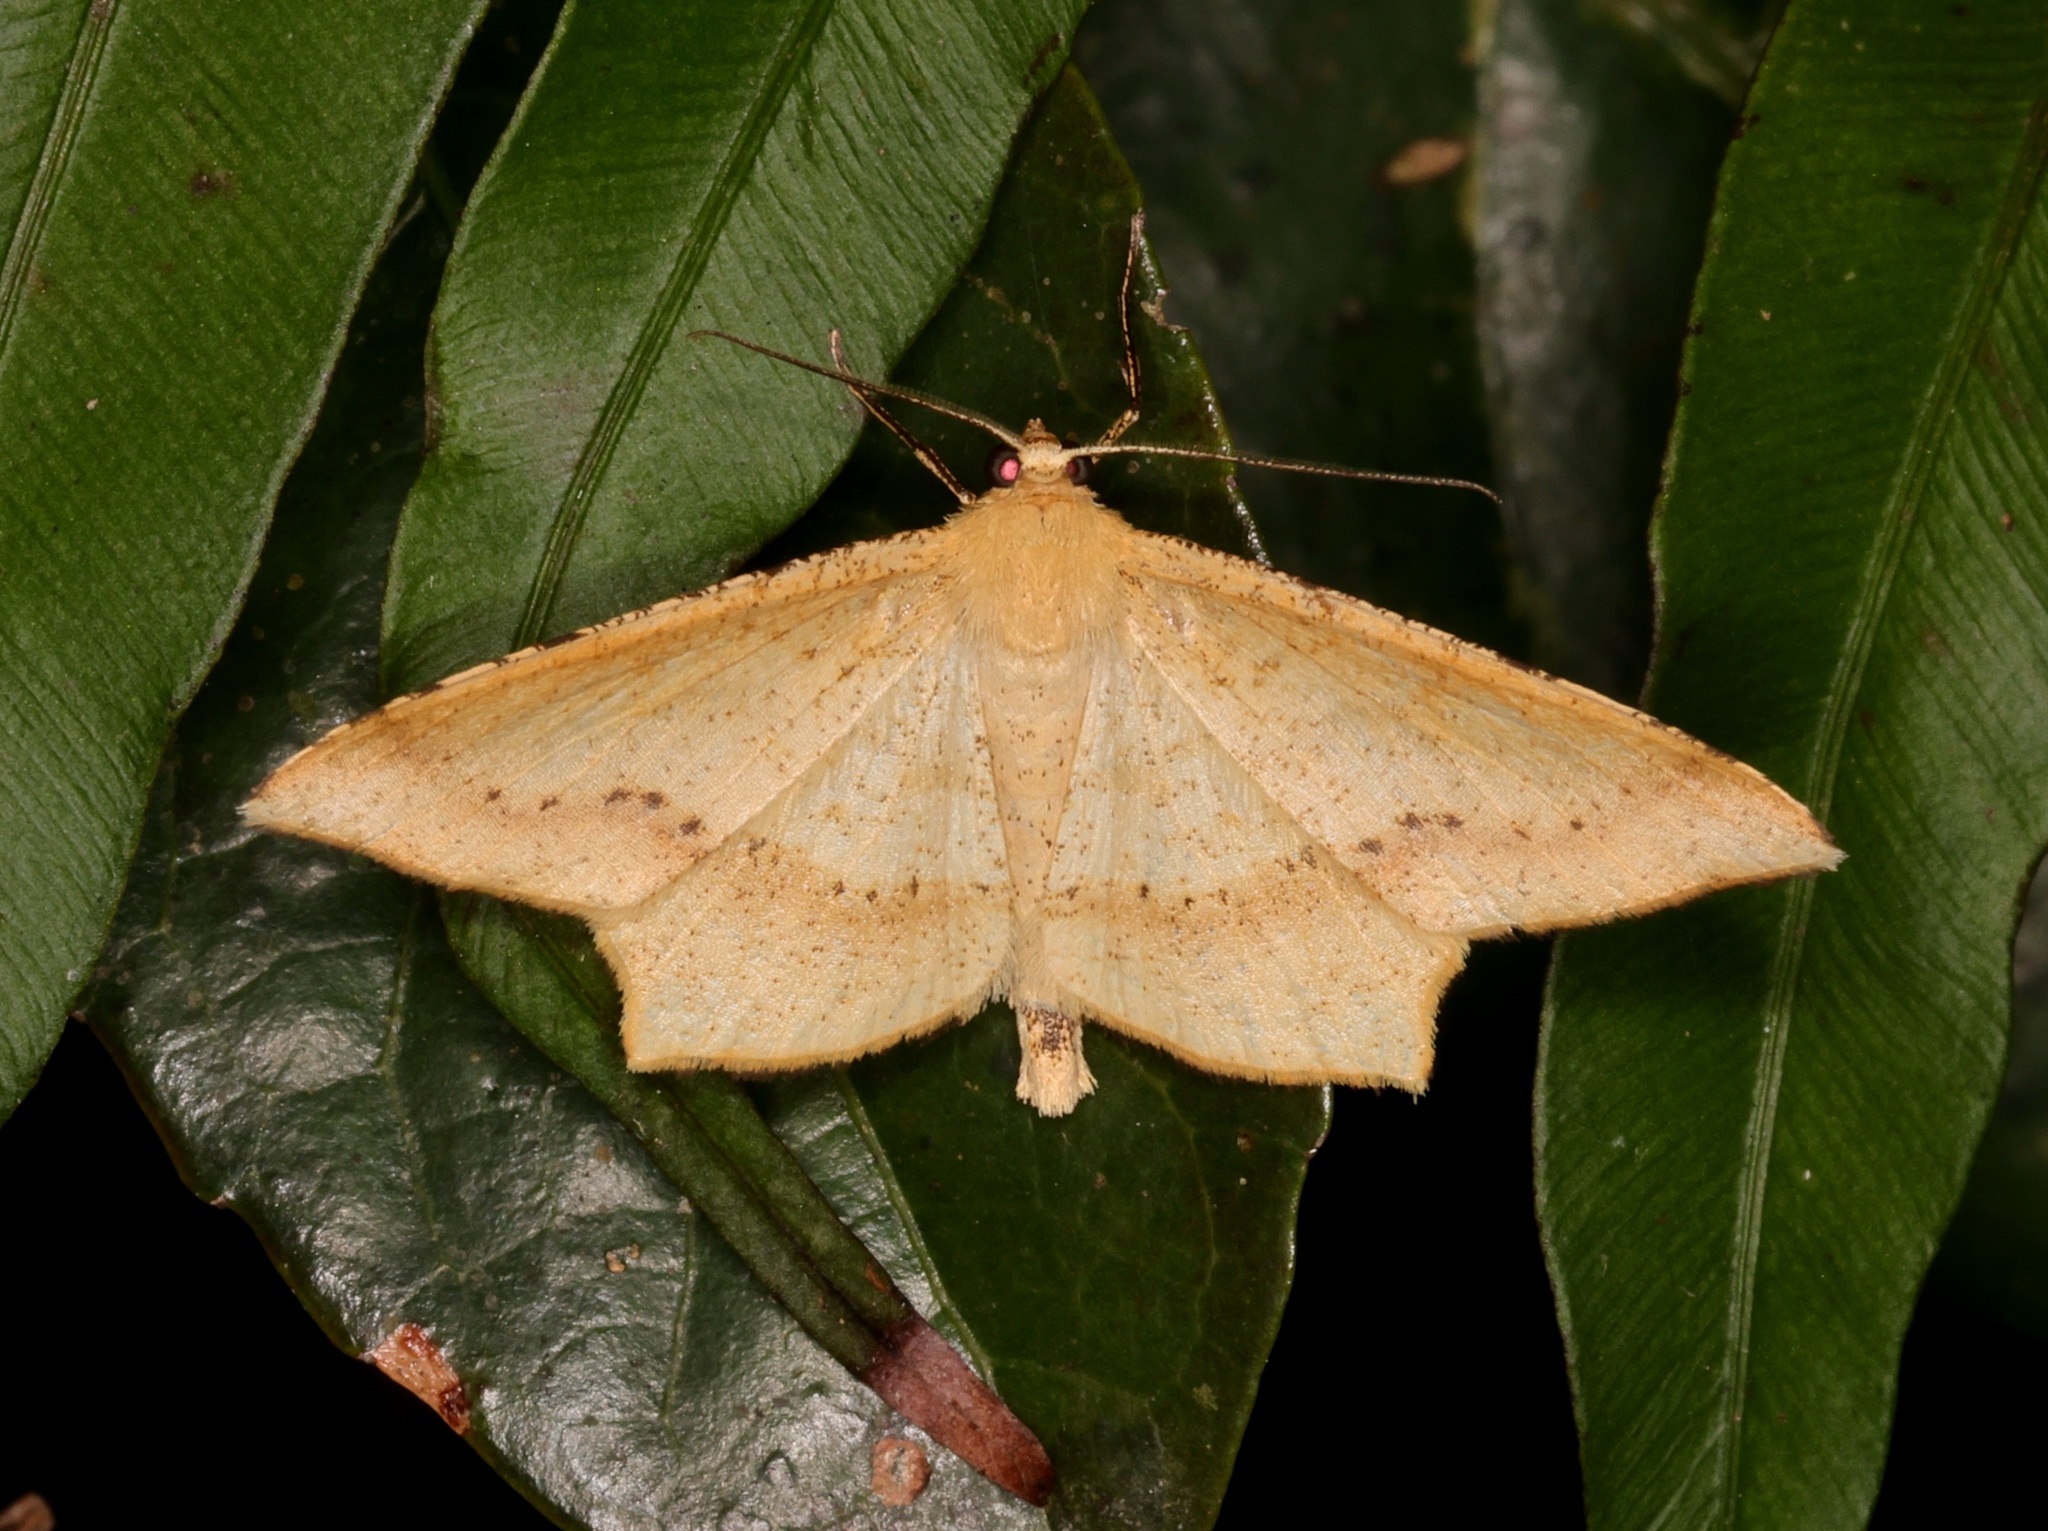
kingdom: Animalia
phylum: Arthropoda
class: Insecta
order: Lepidoptera
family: Geometridae
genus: Krananda
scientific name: Krananda falcata
